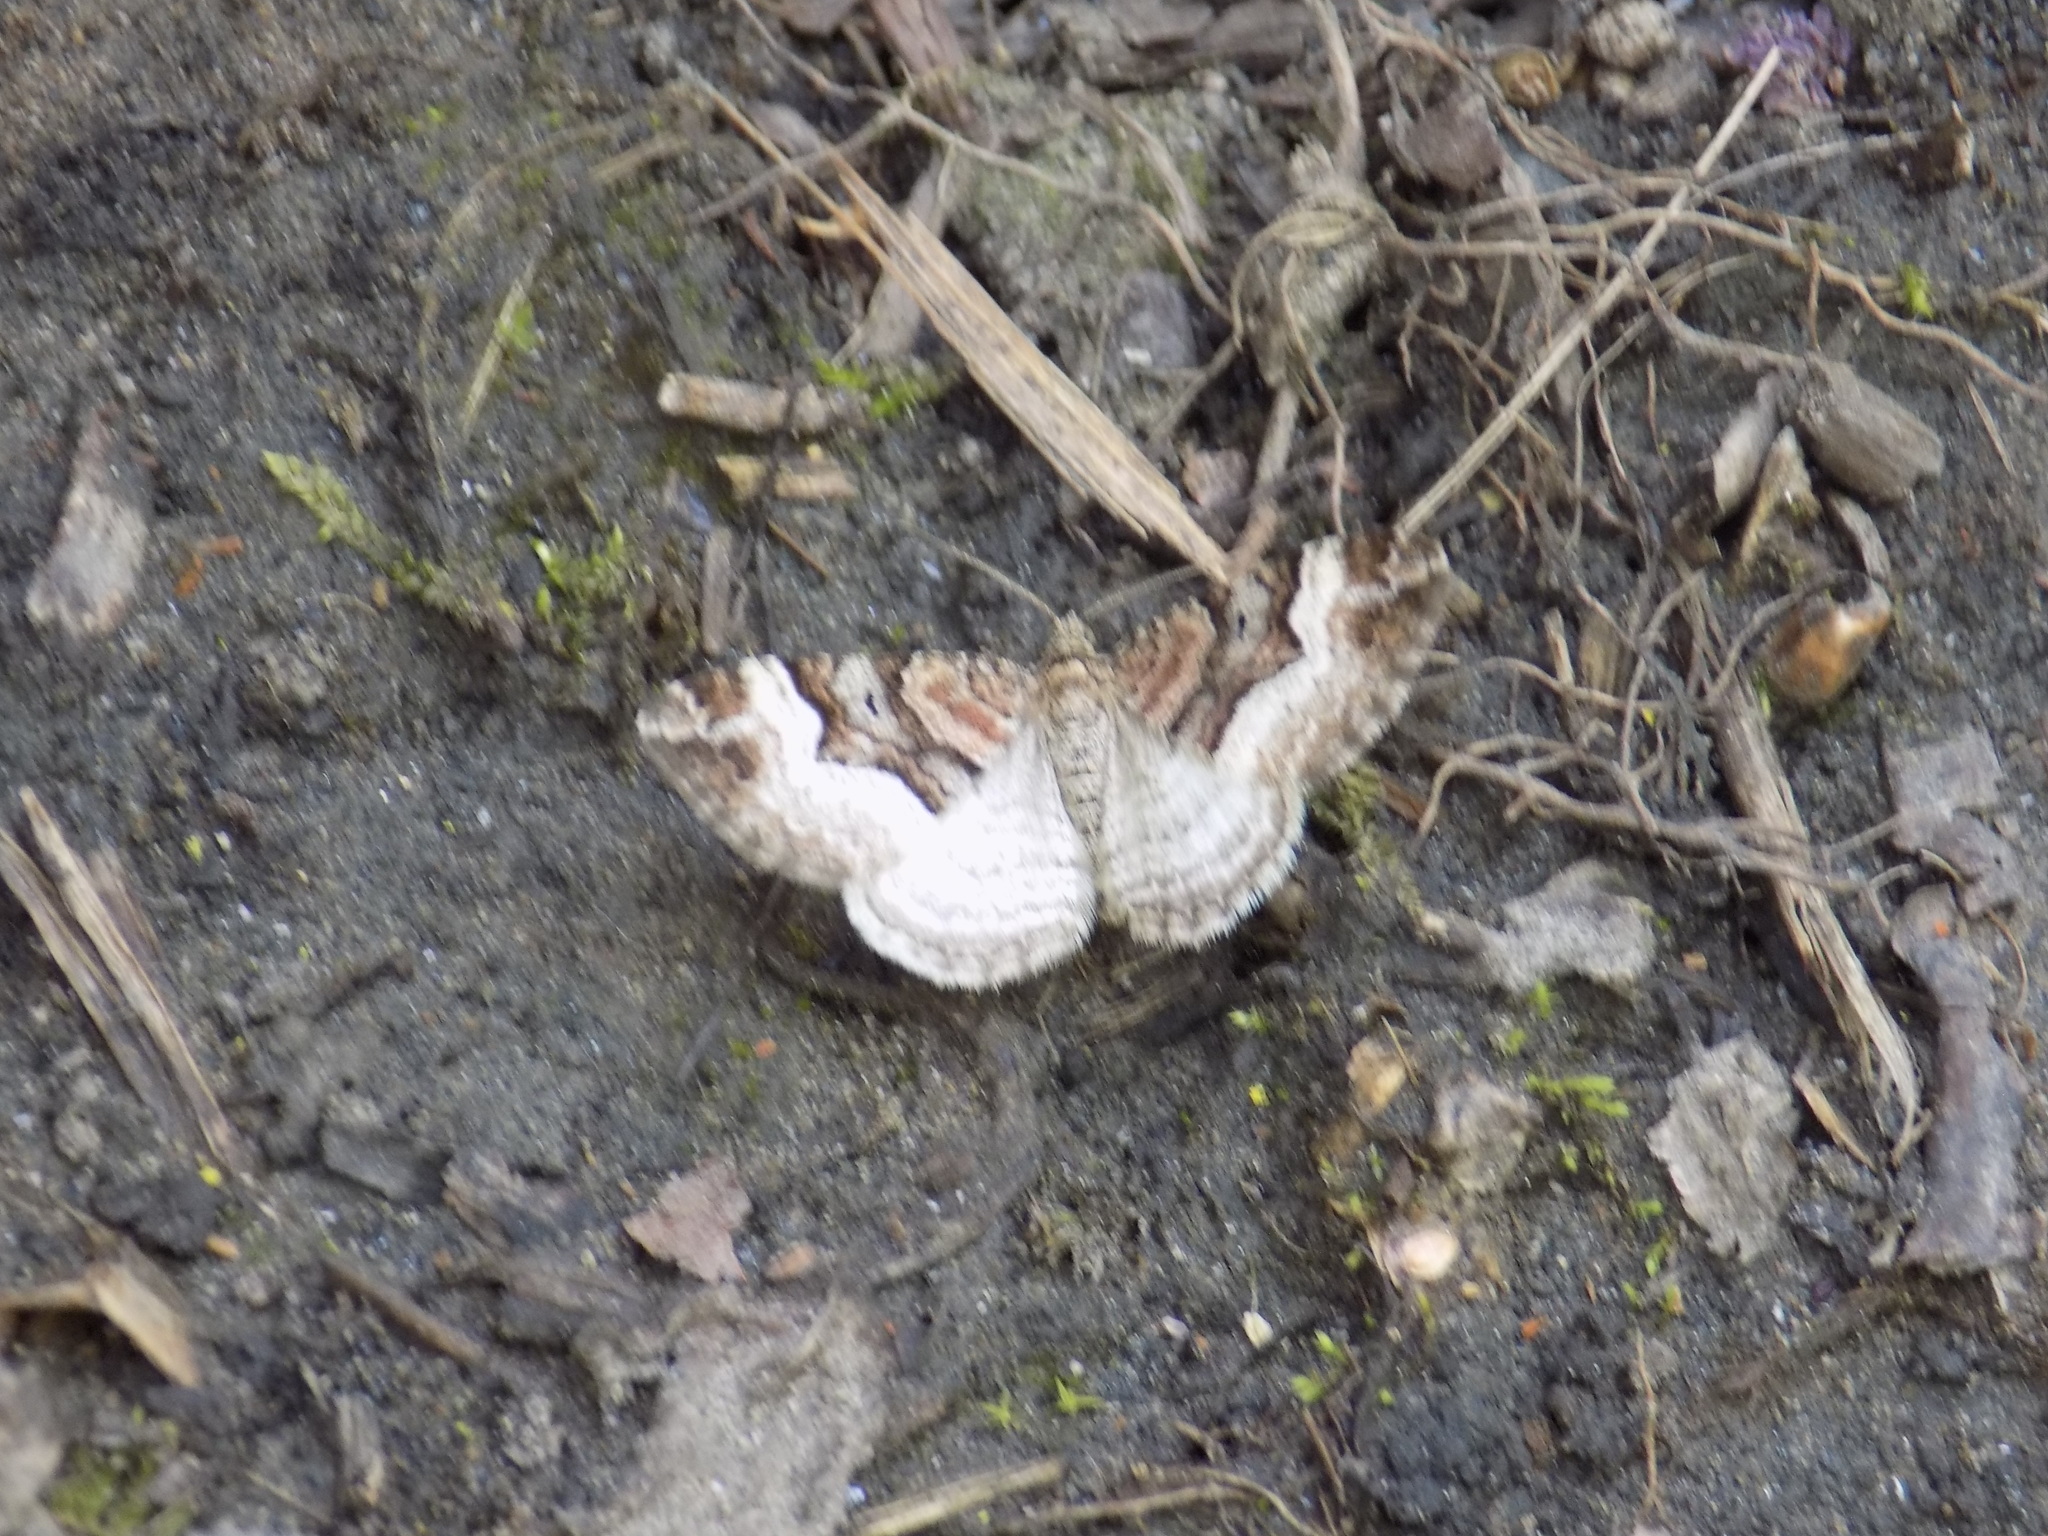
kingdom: Animalia
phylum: Arthropoda
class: Insecta
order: Lepidoptera
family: Geometridae
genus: Xanthorhoe
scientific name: Xanthorhoe biriviata
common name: Balsam carpet
